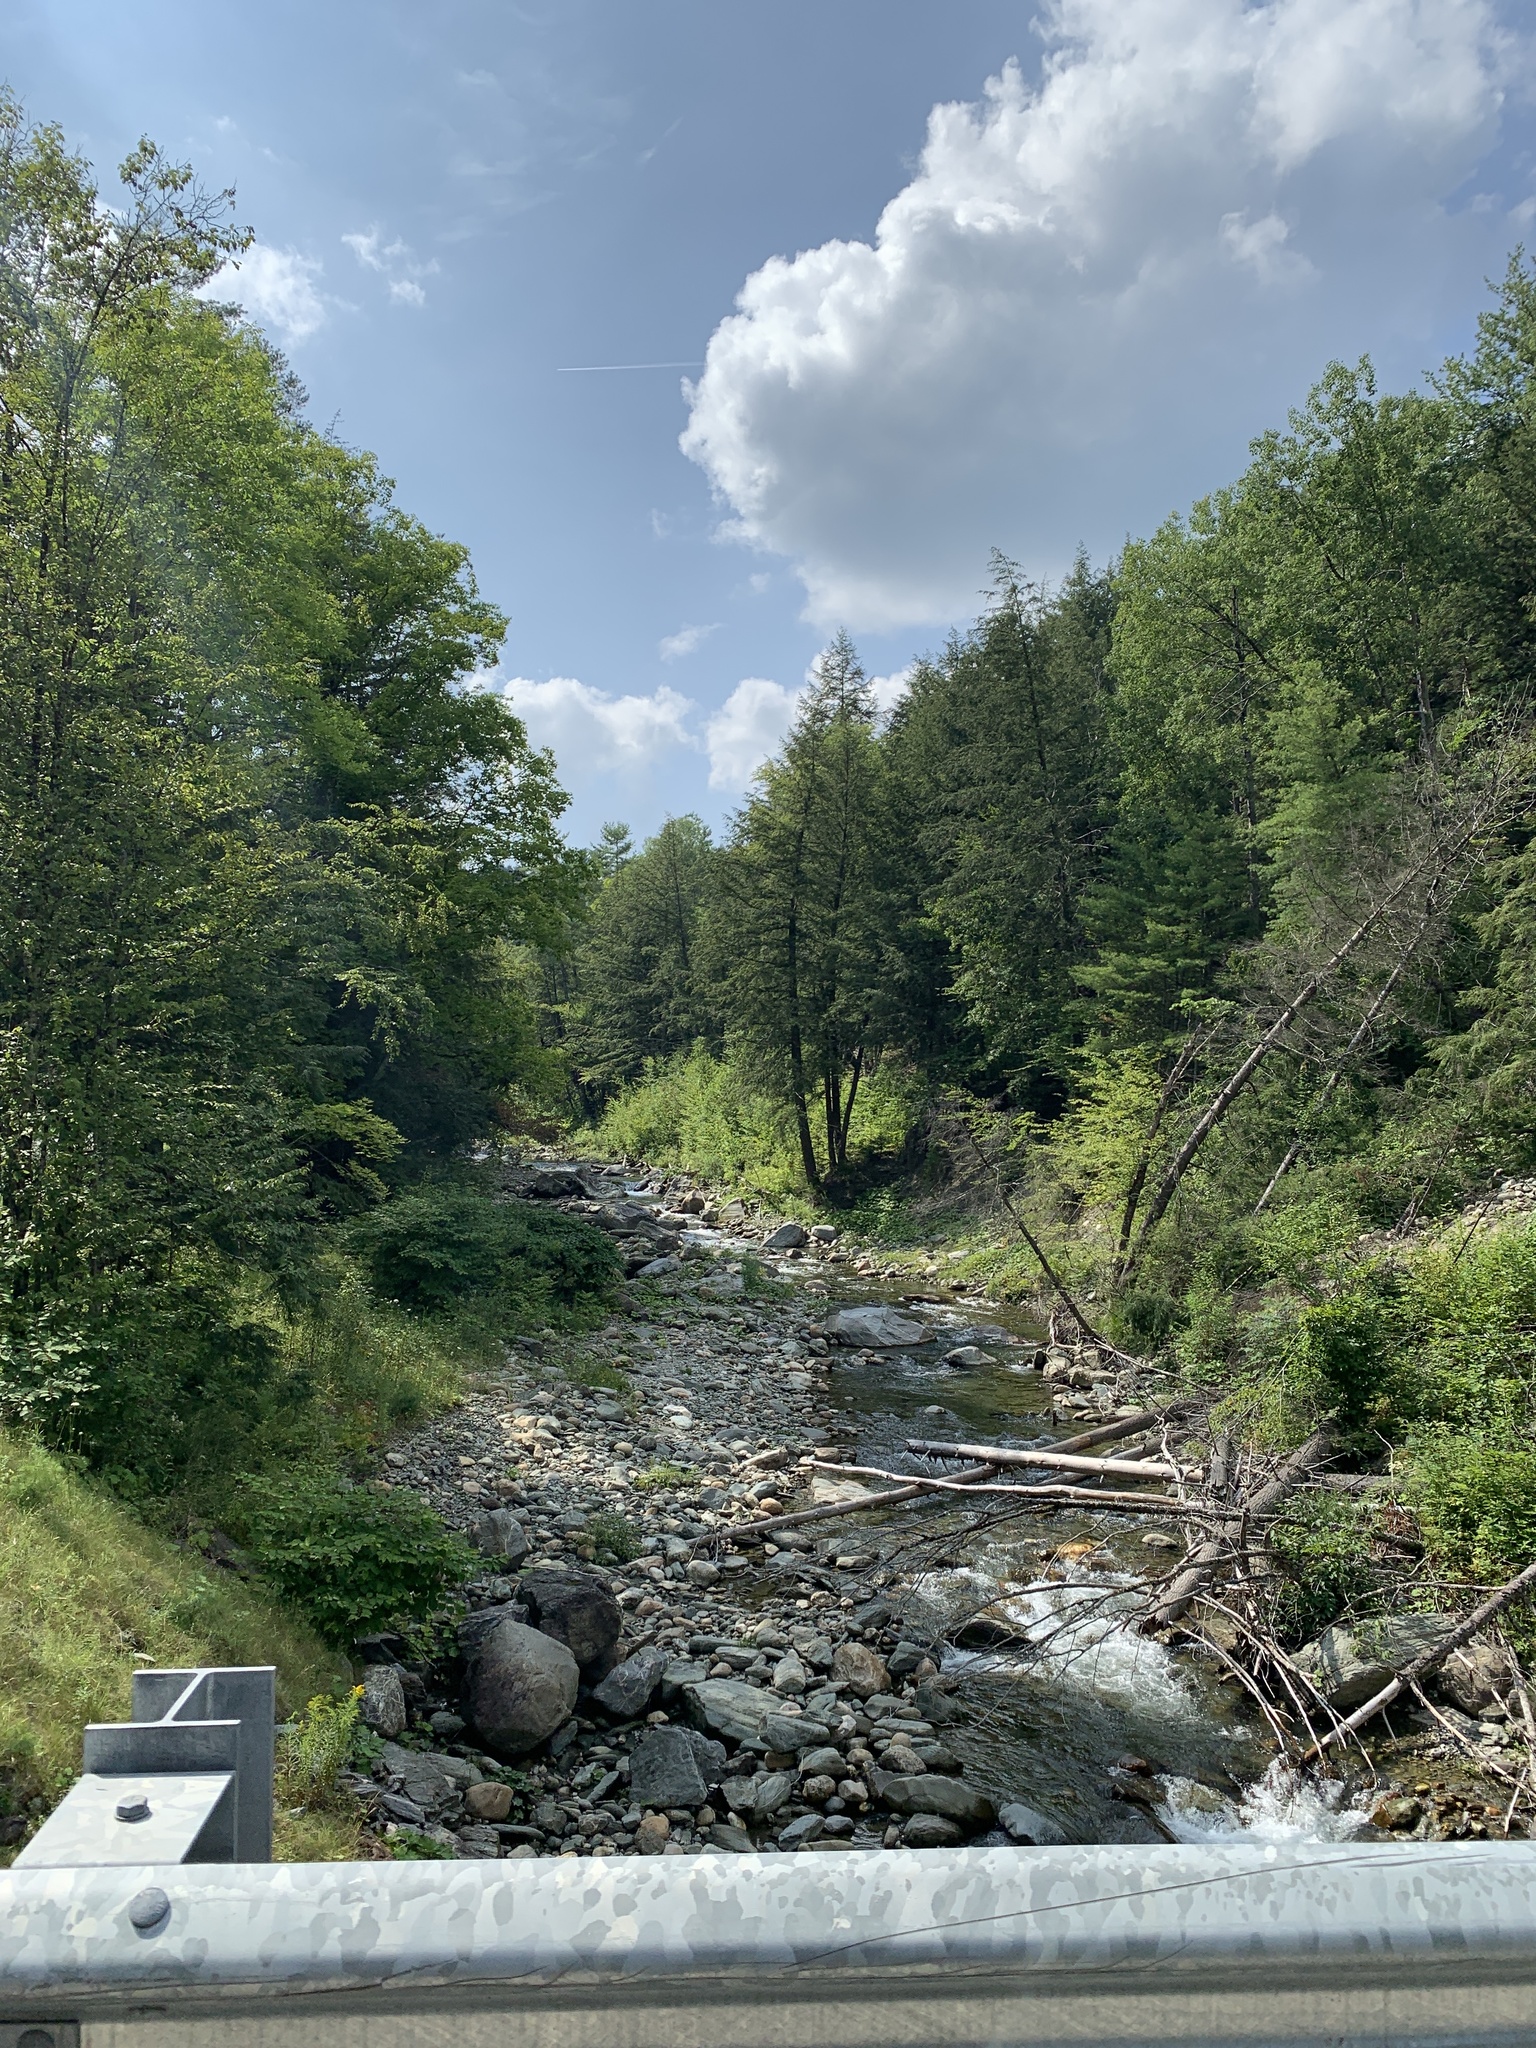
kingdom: Plantae
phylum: Tracheophyta
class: Pinopsida
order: Pinales
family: Pinaceae
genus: Tsuga
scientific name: Tsuga canadensis
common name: Eastern hemlock
